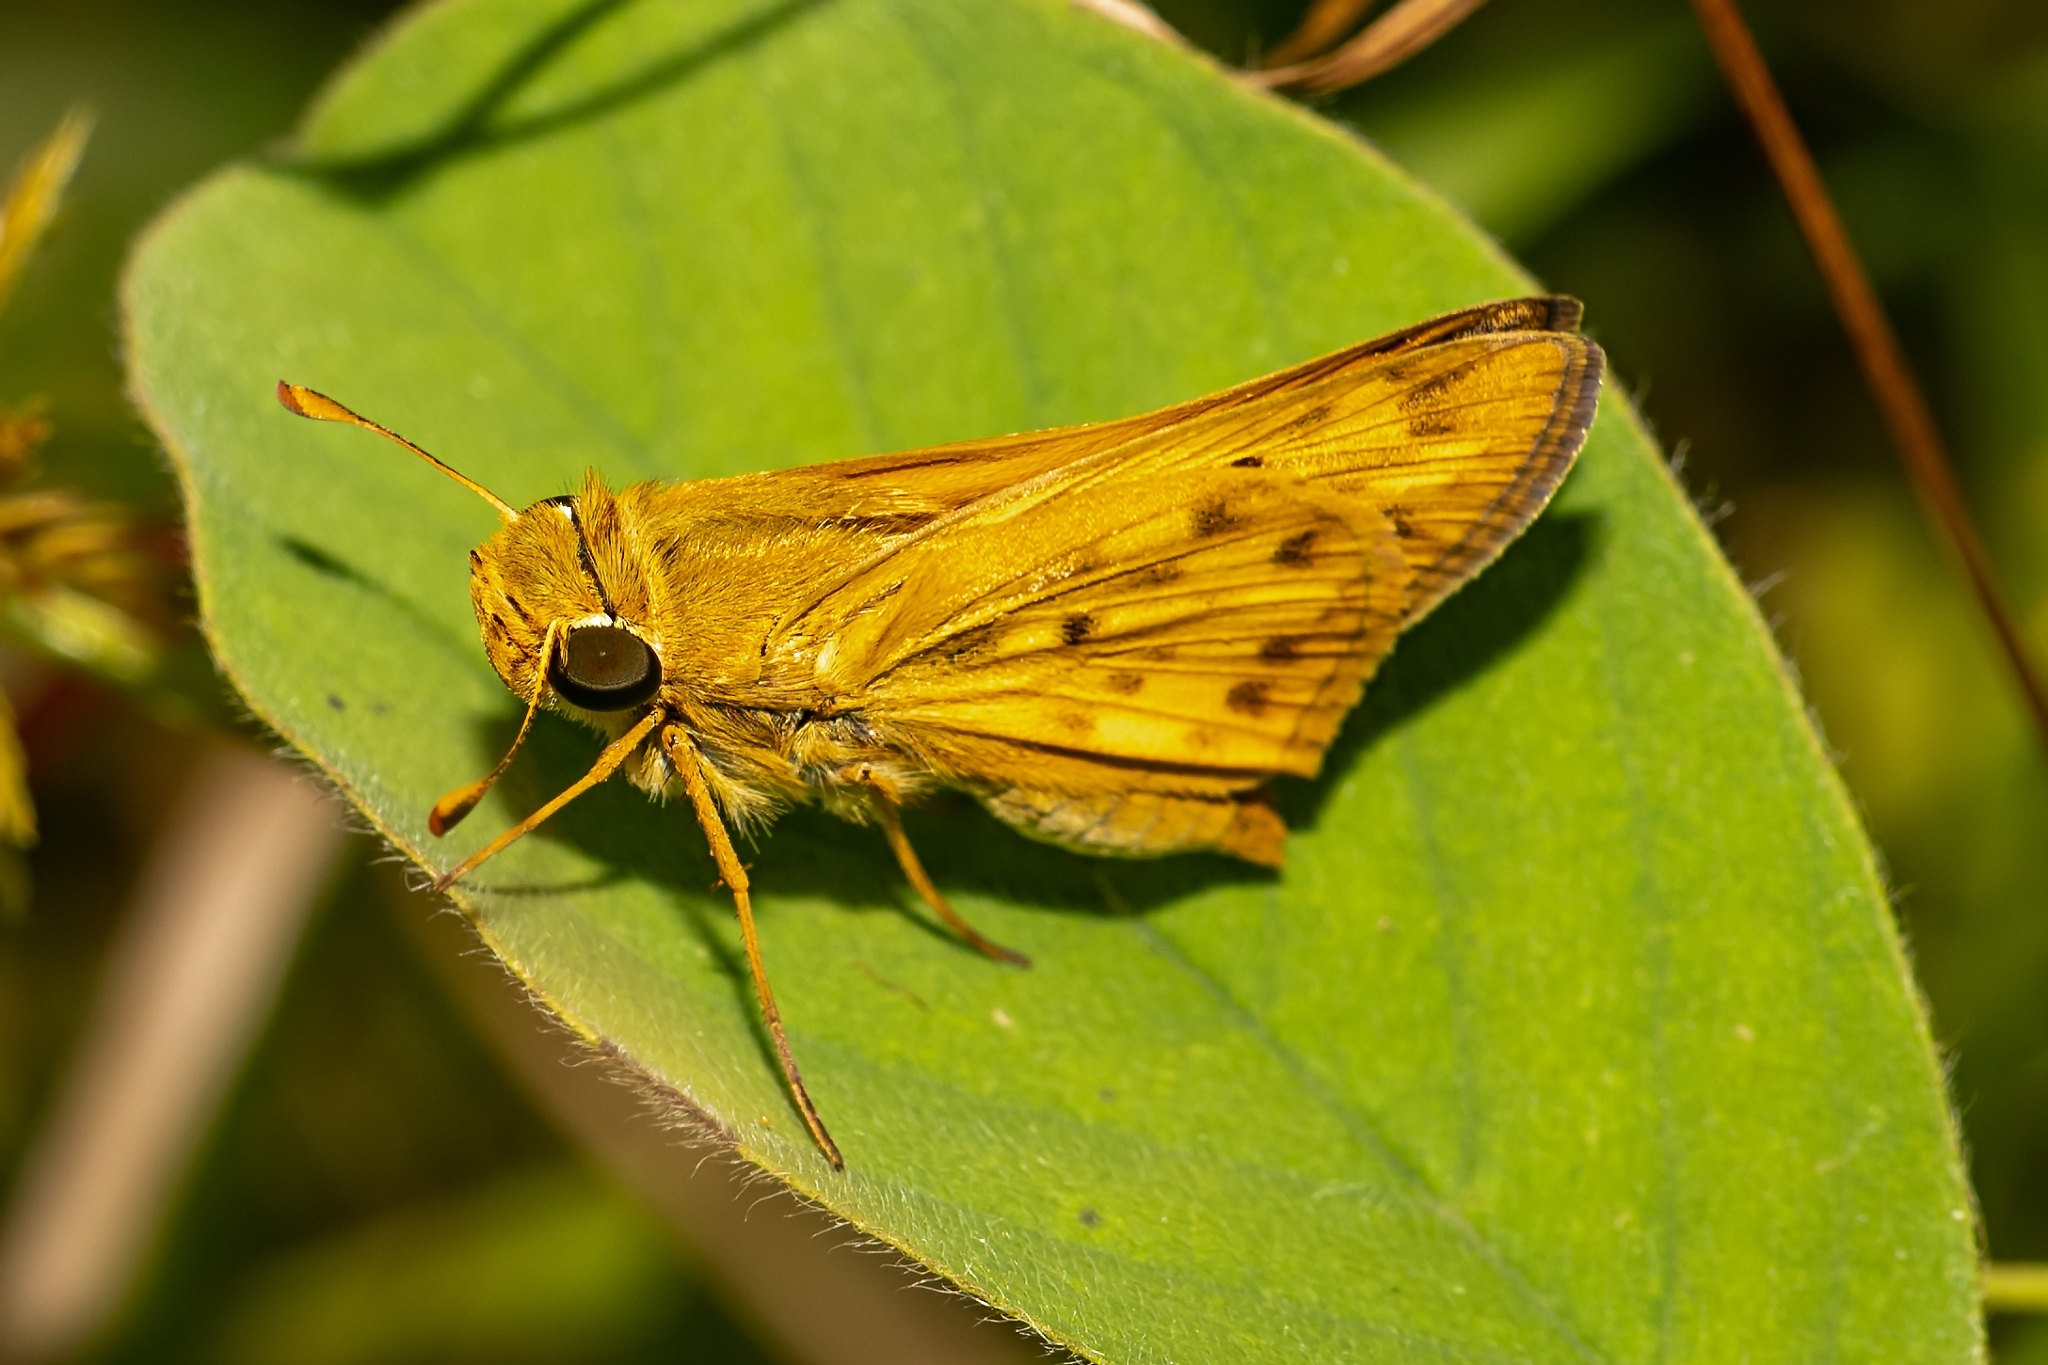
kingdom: Animalia
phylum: Arthropoda
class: Insecta
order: Lepidoptera
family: Hesperiidae
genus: Hylephila
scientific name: Hylephila phyleus
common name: Fiery skipper
